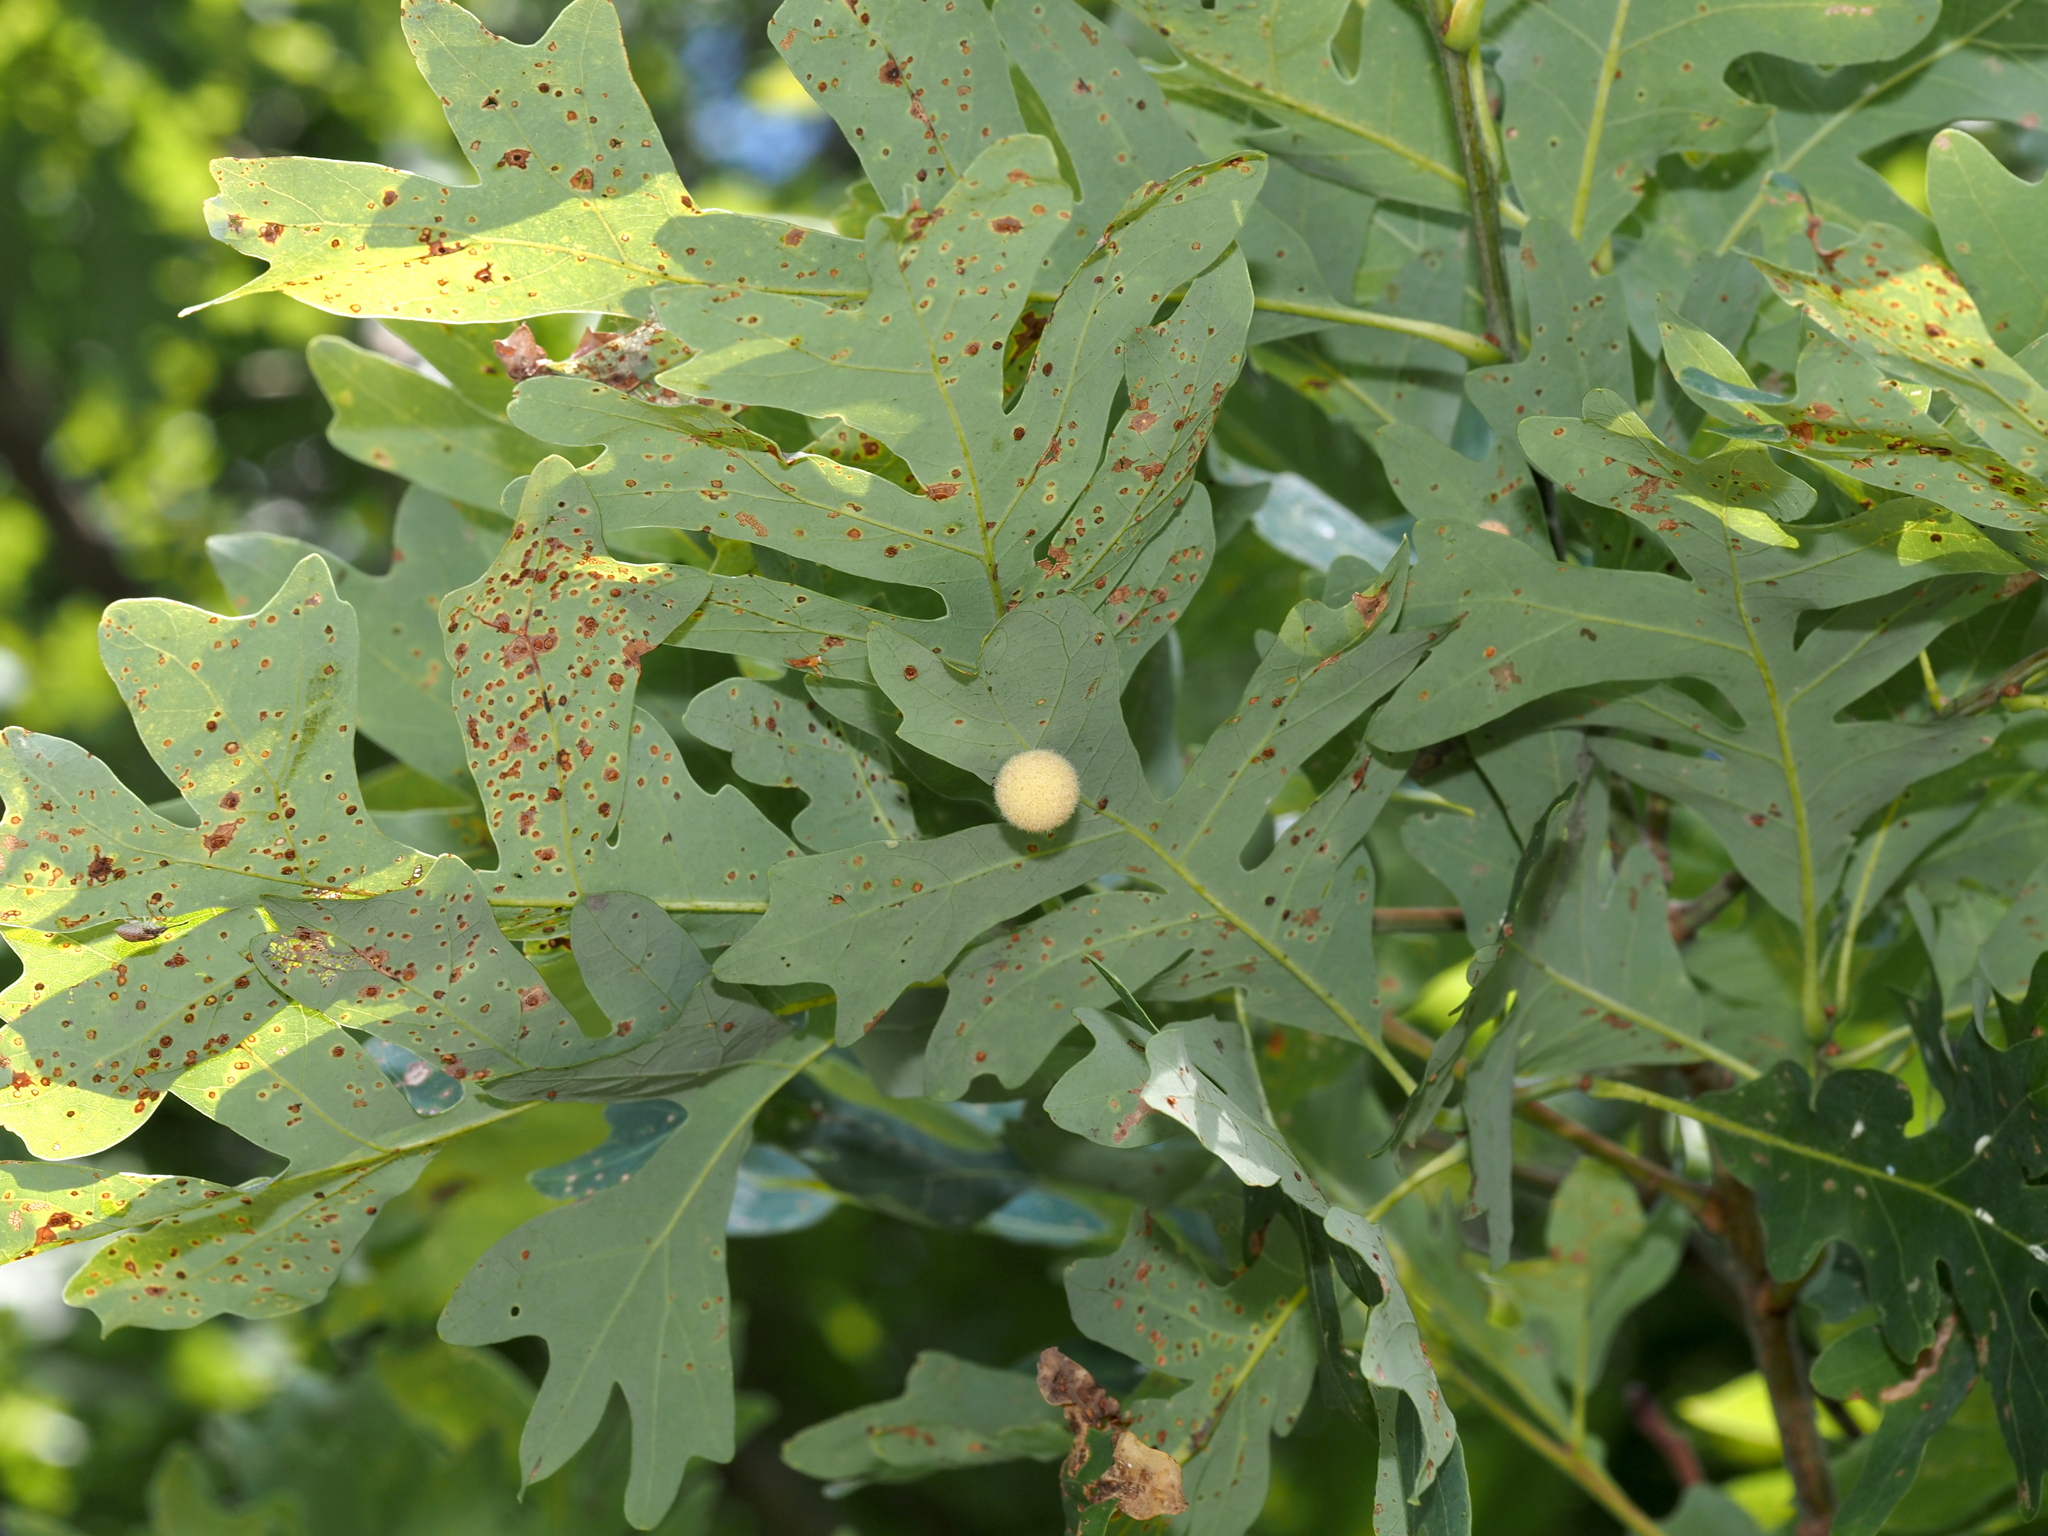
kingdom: Animalia
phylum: Arthropoda
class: Insecta
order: Hymenoptera
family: Cynipidae
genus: Philonix
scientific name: Philonix fulvicollis
